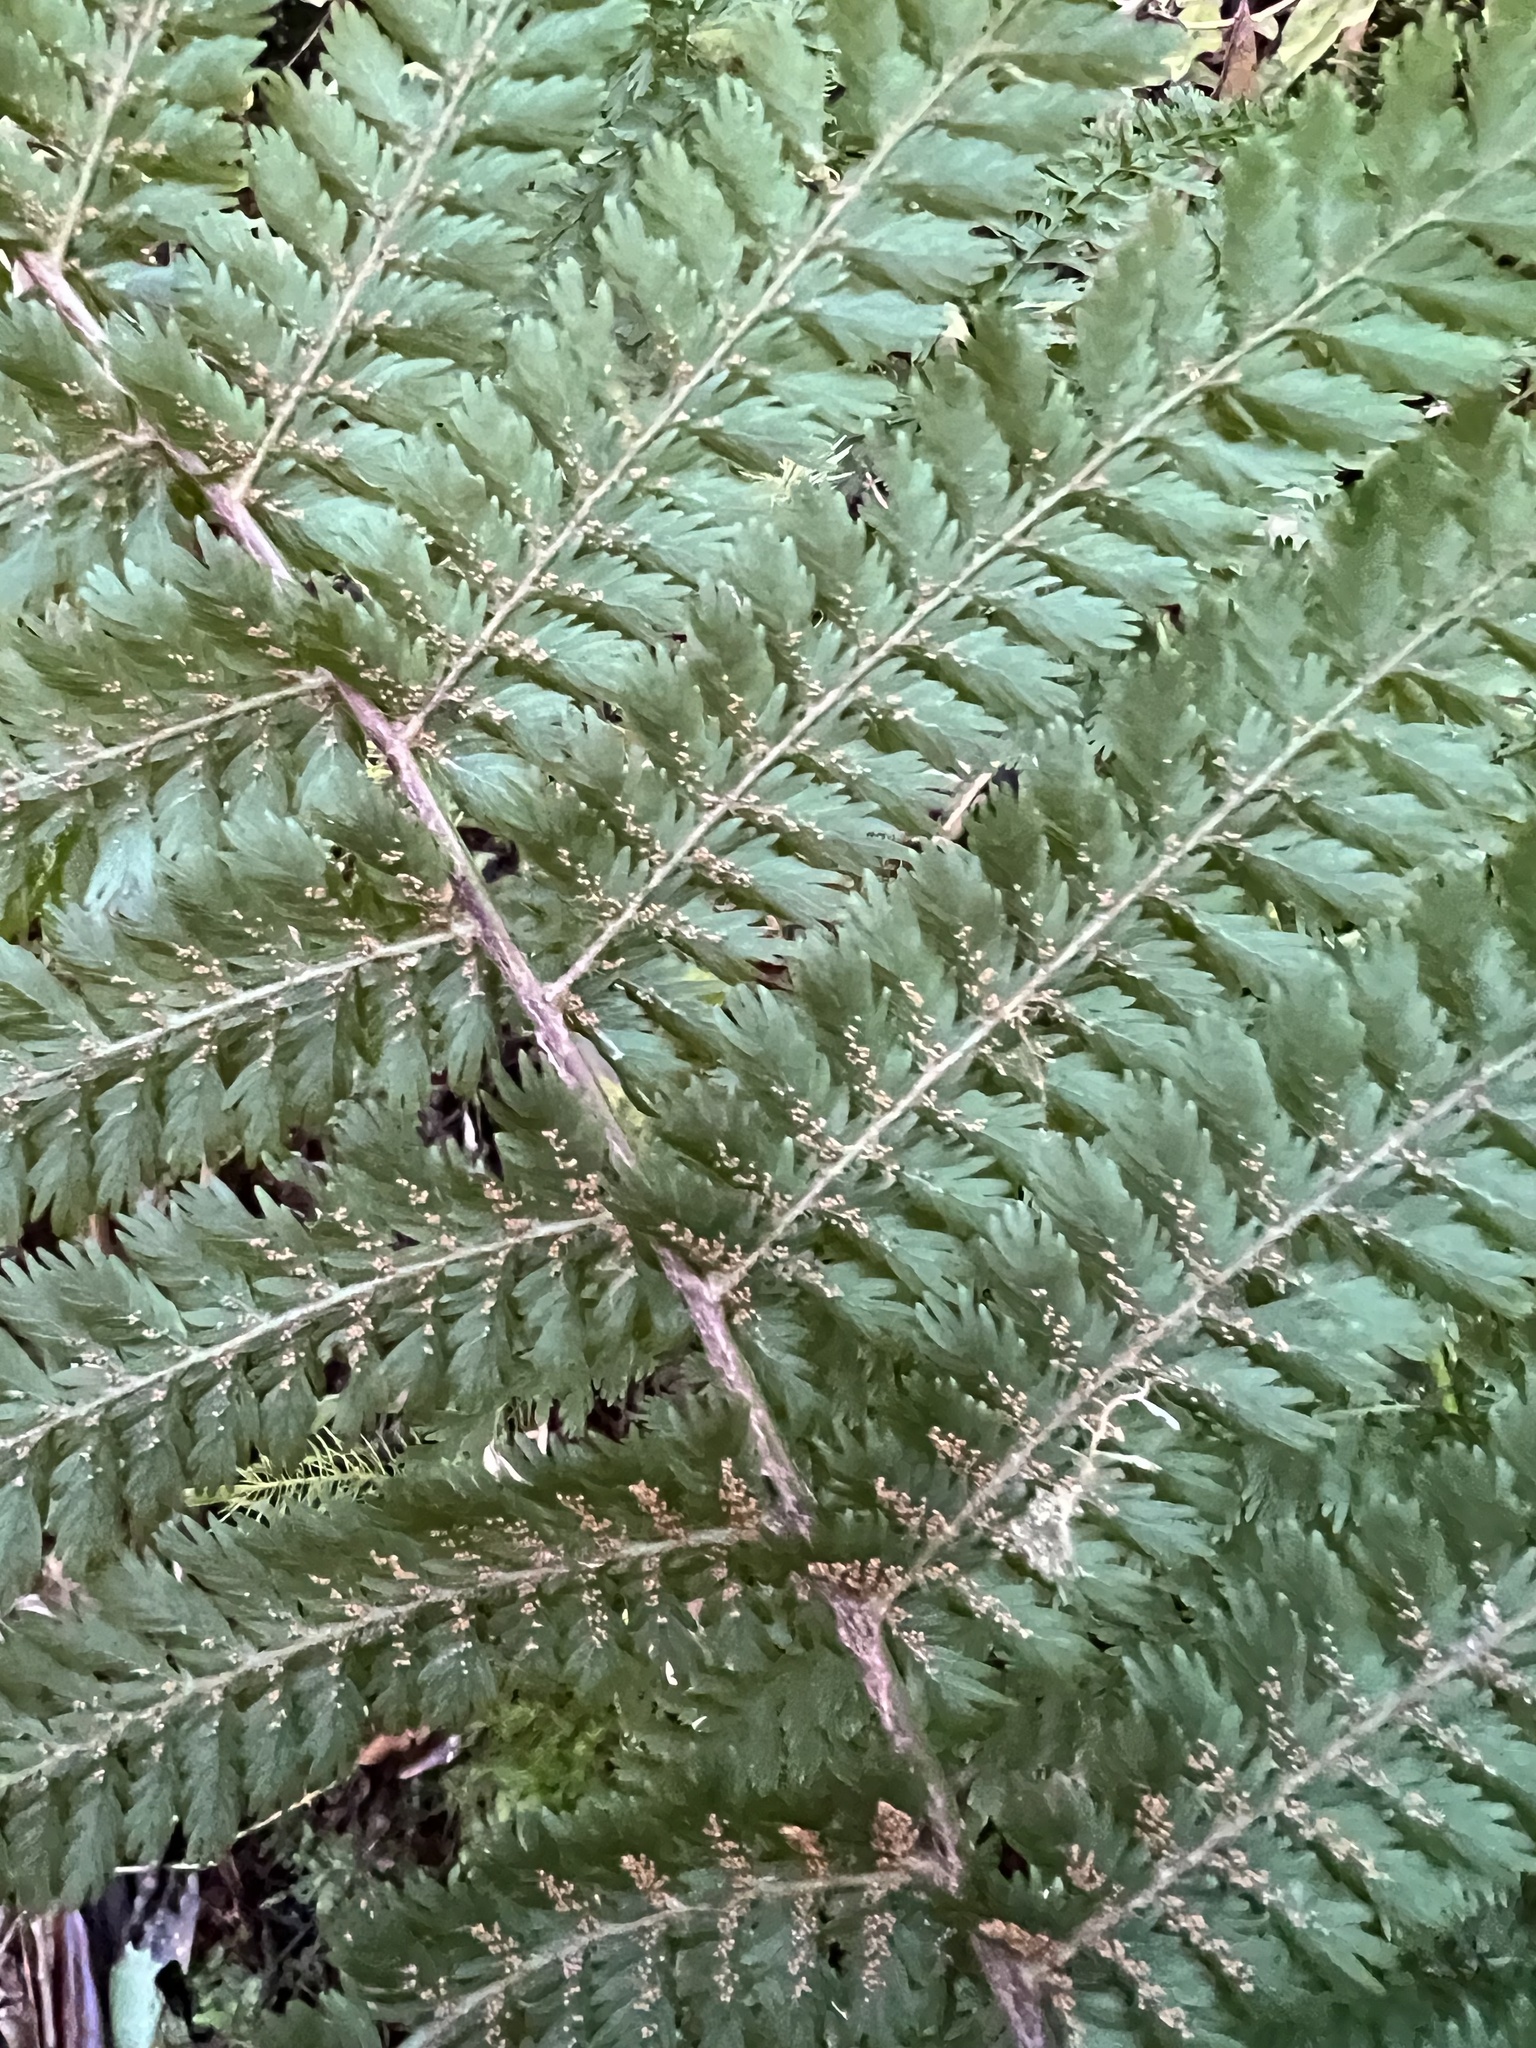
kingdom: Plantae
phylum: Tracheophyta
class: Polypodiopsida
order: Osmundales
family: Osmundaceae
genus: Leptopteris
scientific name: Leptopteris intermedia
